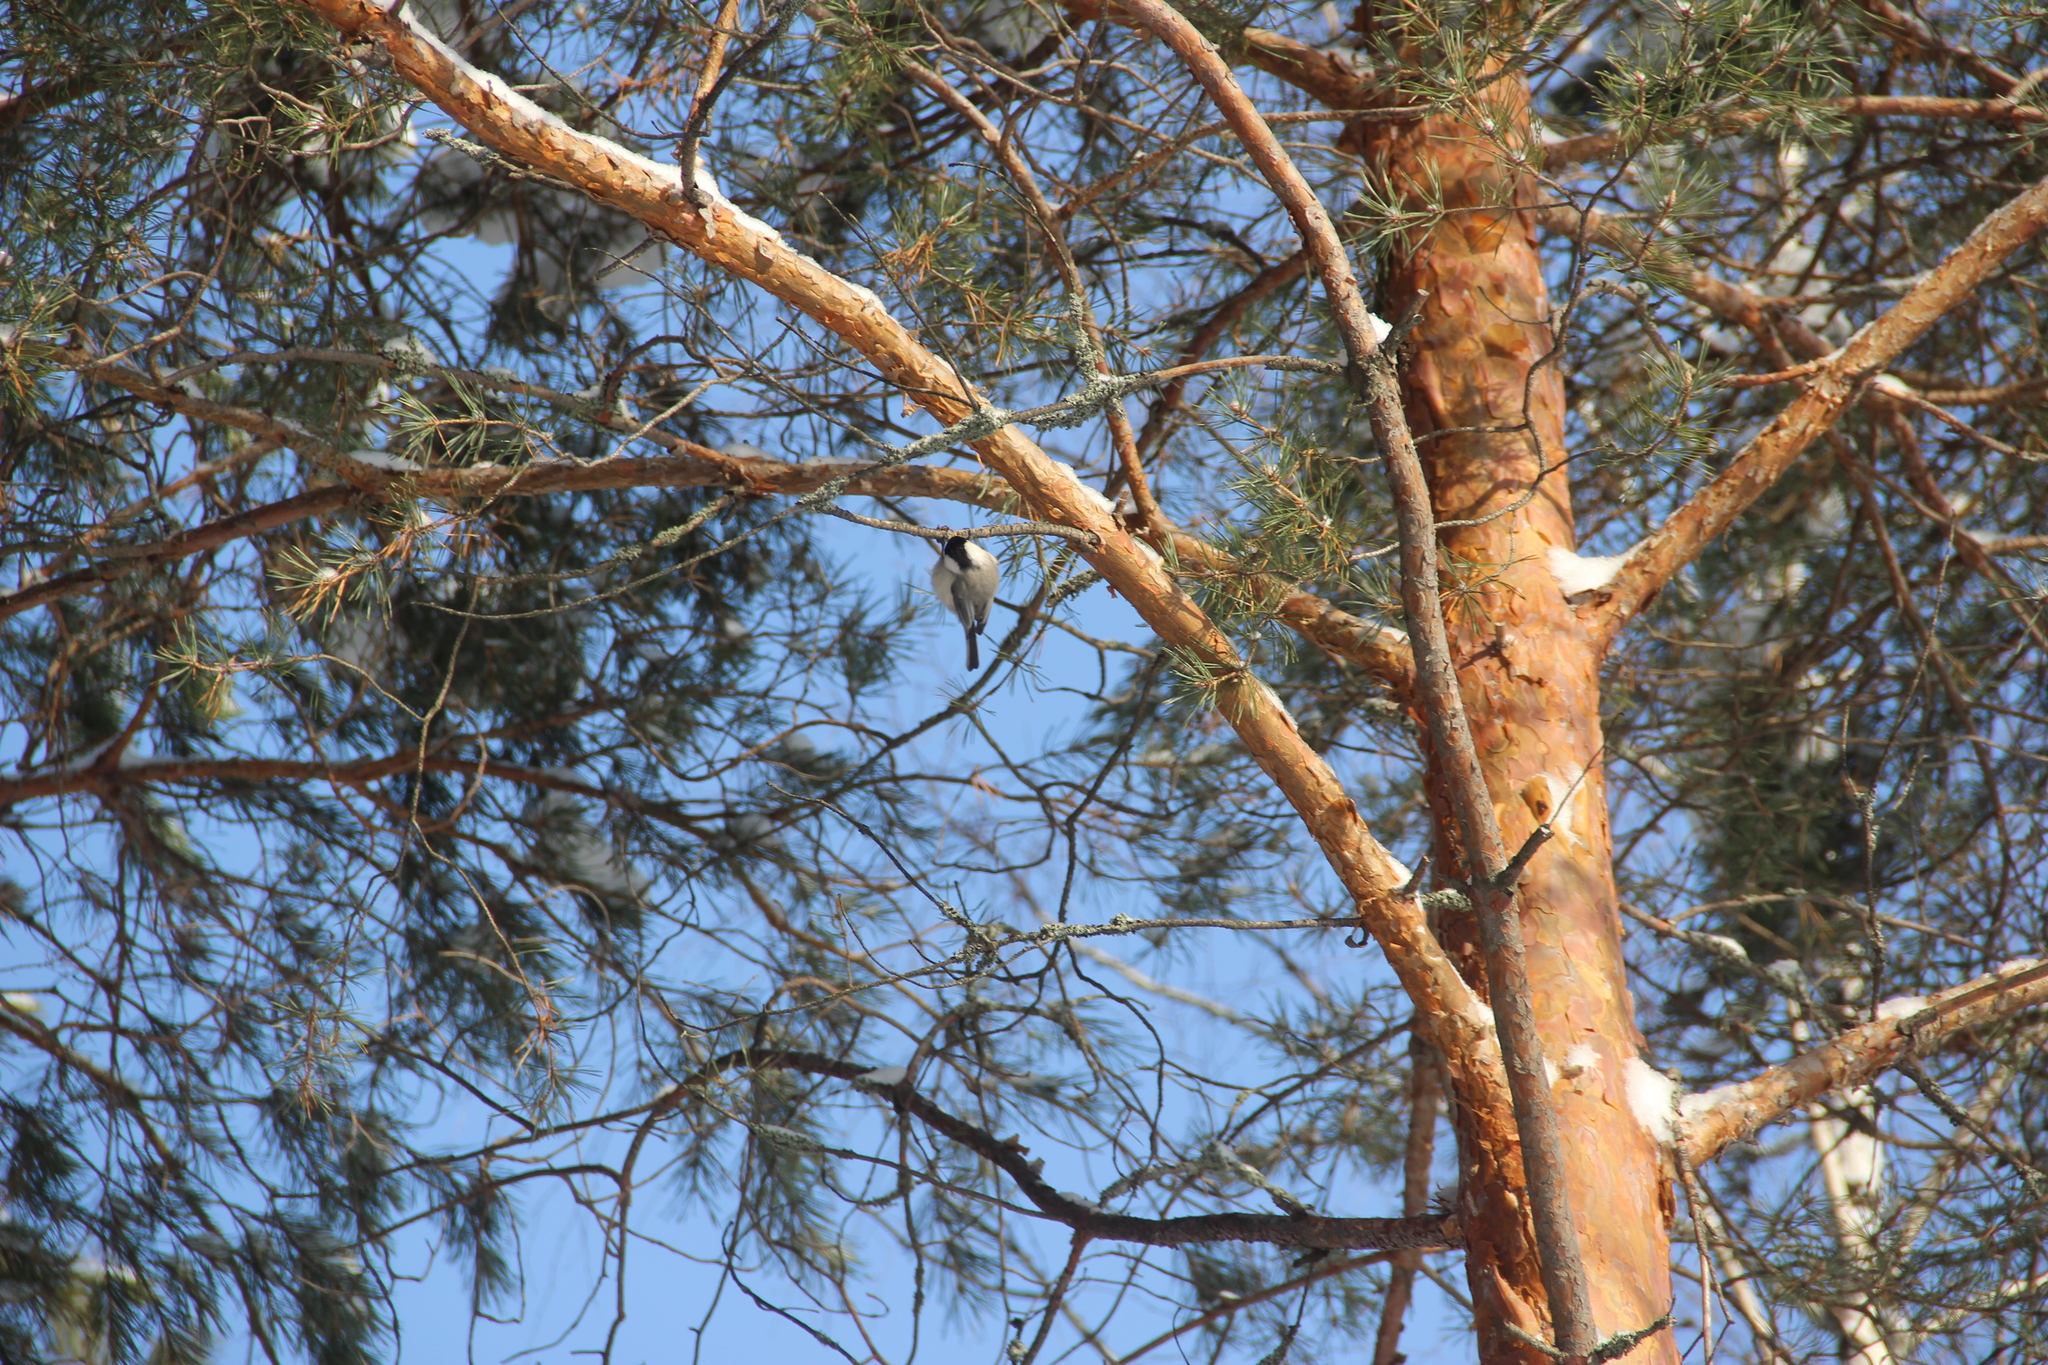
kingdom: Animalia
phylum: Chordata
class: Aves
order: Passeriformes
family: Paridae
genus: Poecile
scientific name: Poecile montanus
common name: Willow tit
